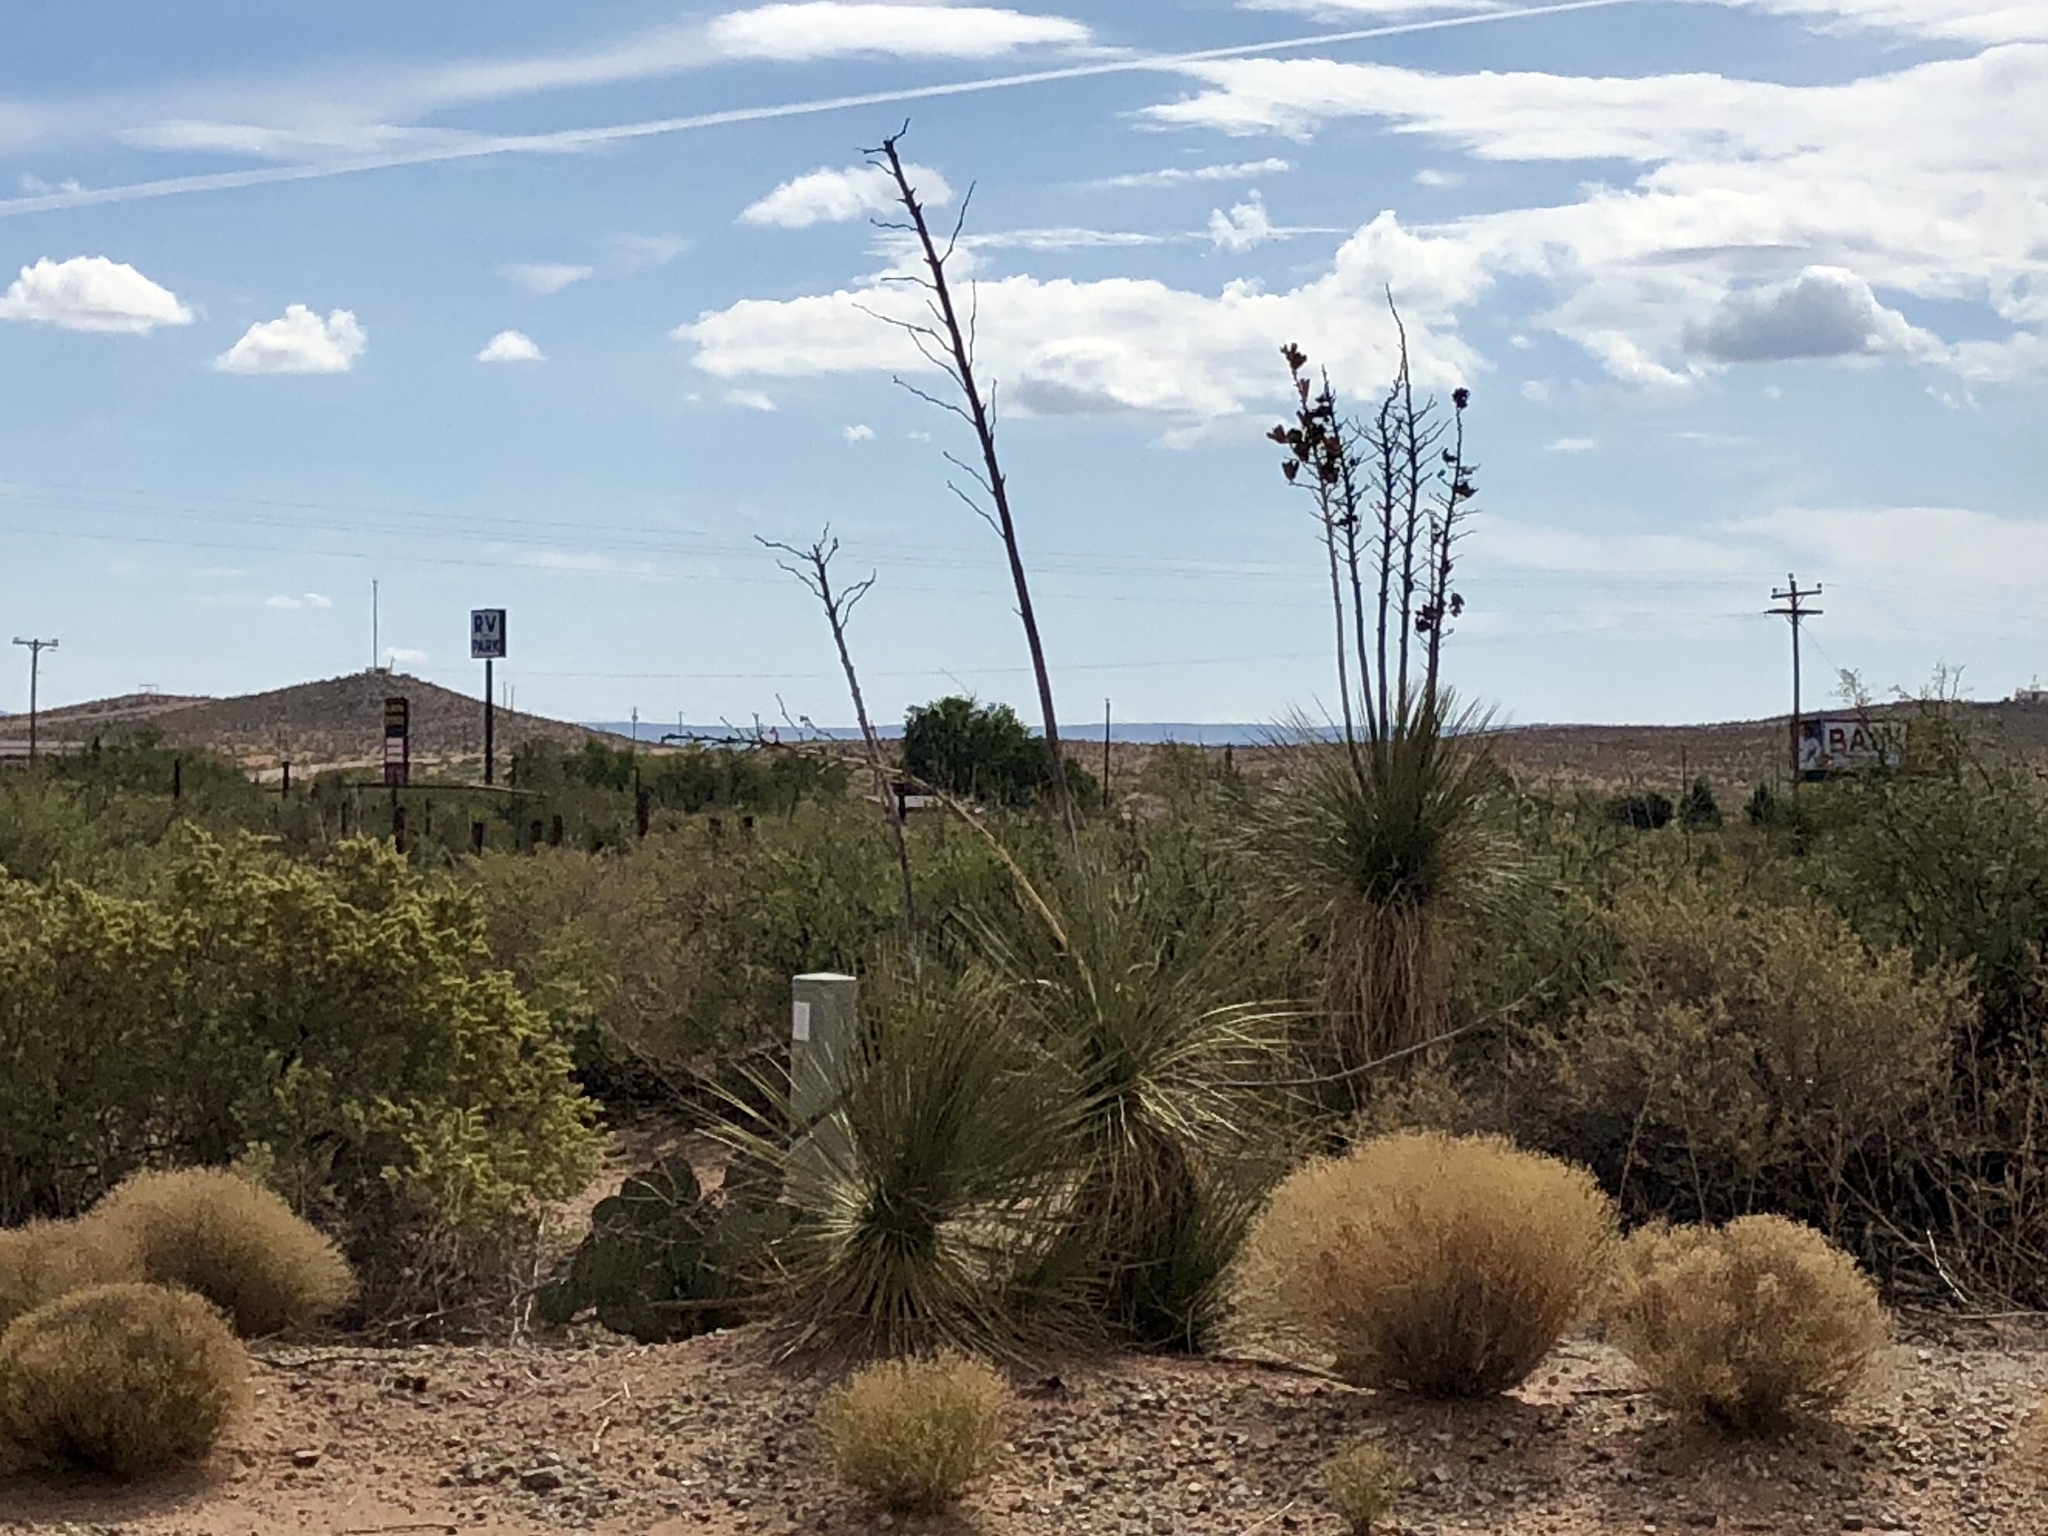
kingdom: Plantae
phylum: Tracheophyta
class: Liliopsida
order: Asparagales
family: Asparagaceae
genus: Yucca
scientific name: Yucca elata
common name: Palmella
